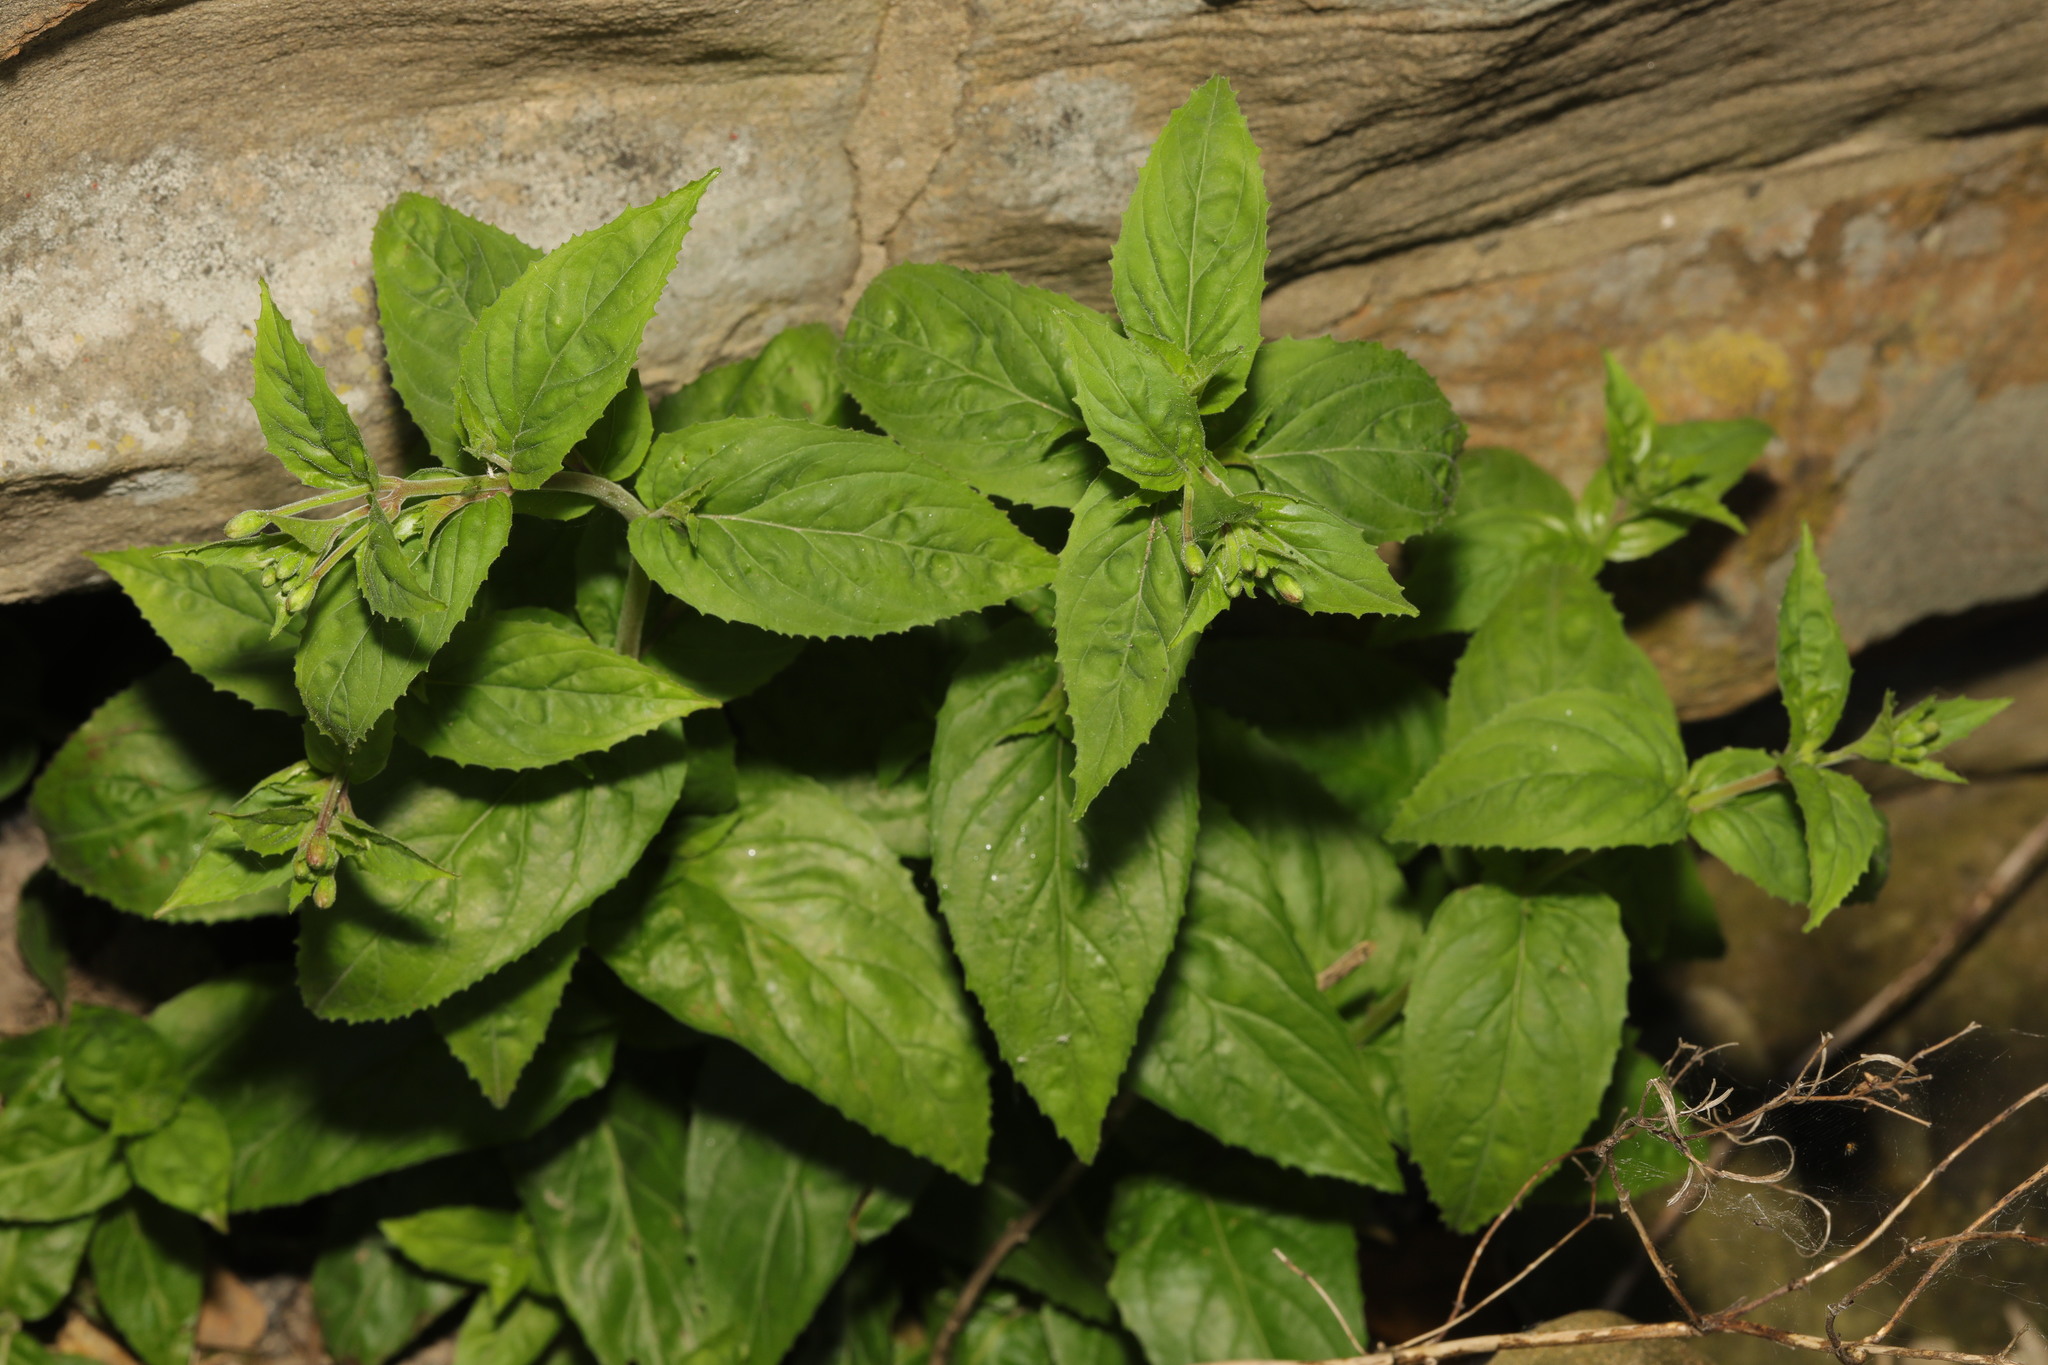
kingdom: Plantae
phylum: Tracheophyta
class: Magnoliopsida
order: Myrtales
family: Onagraceae
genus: Epilobium
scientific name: Epilobium montanum
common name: Broad-leaved willowherb
